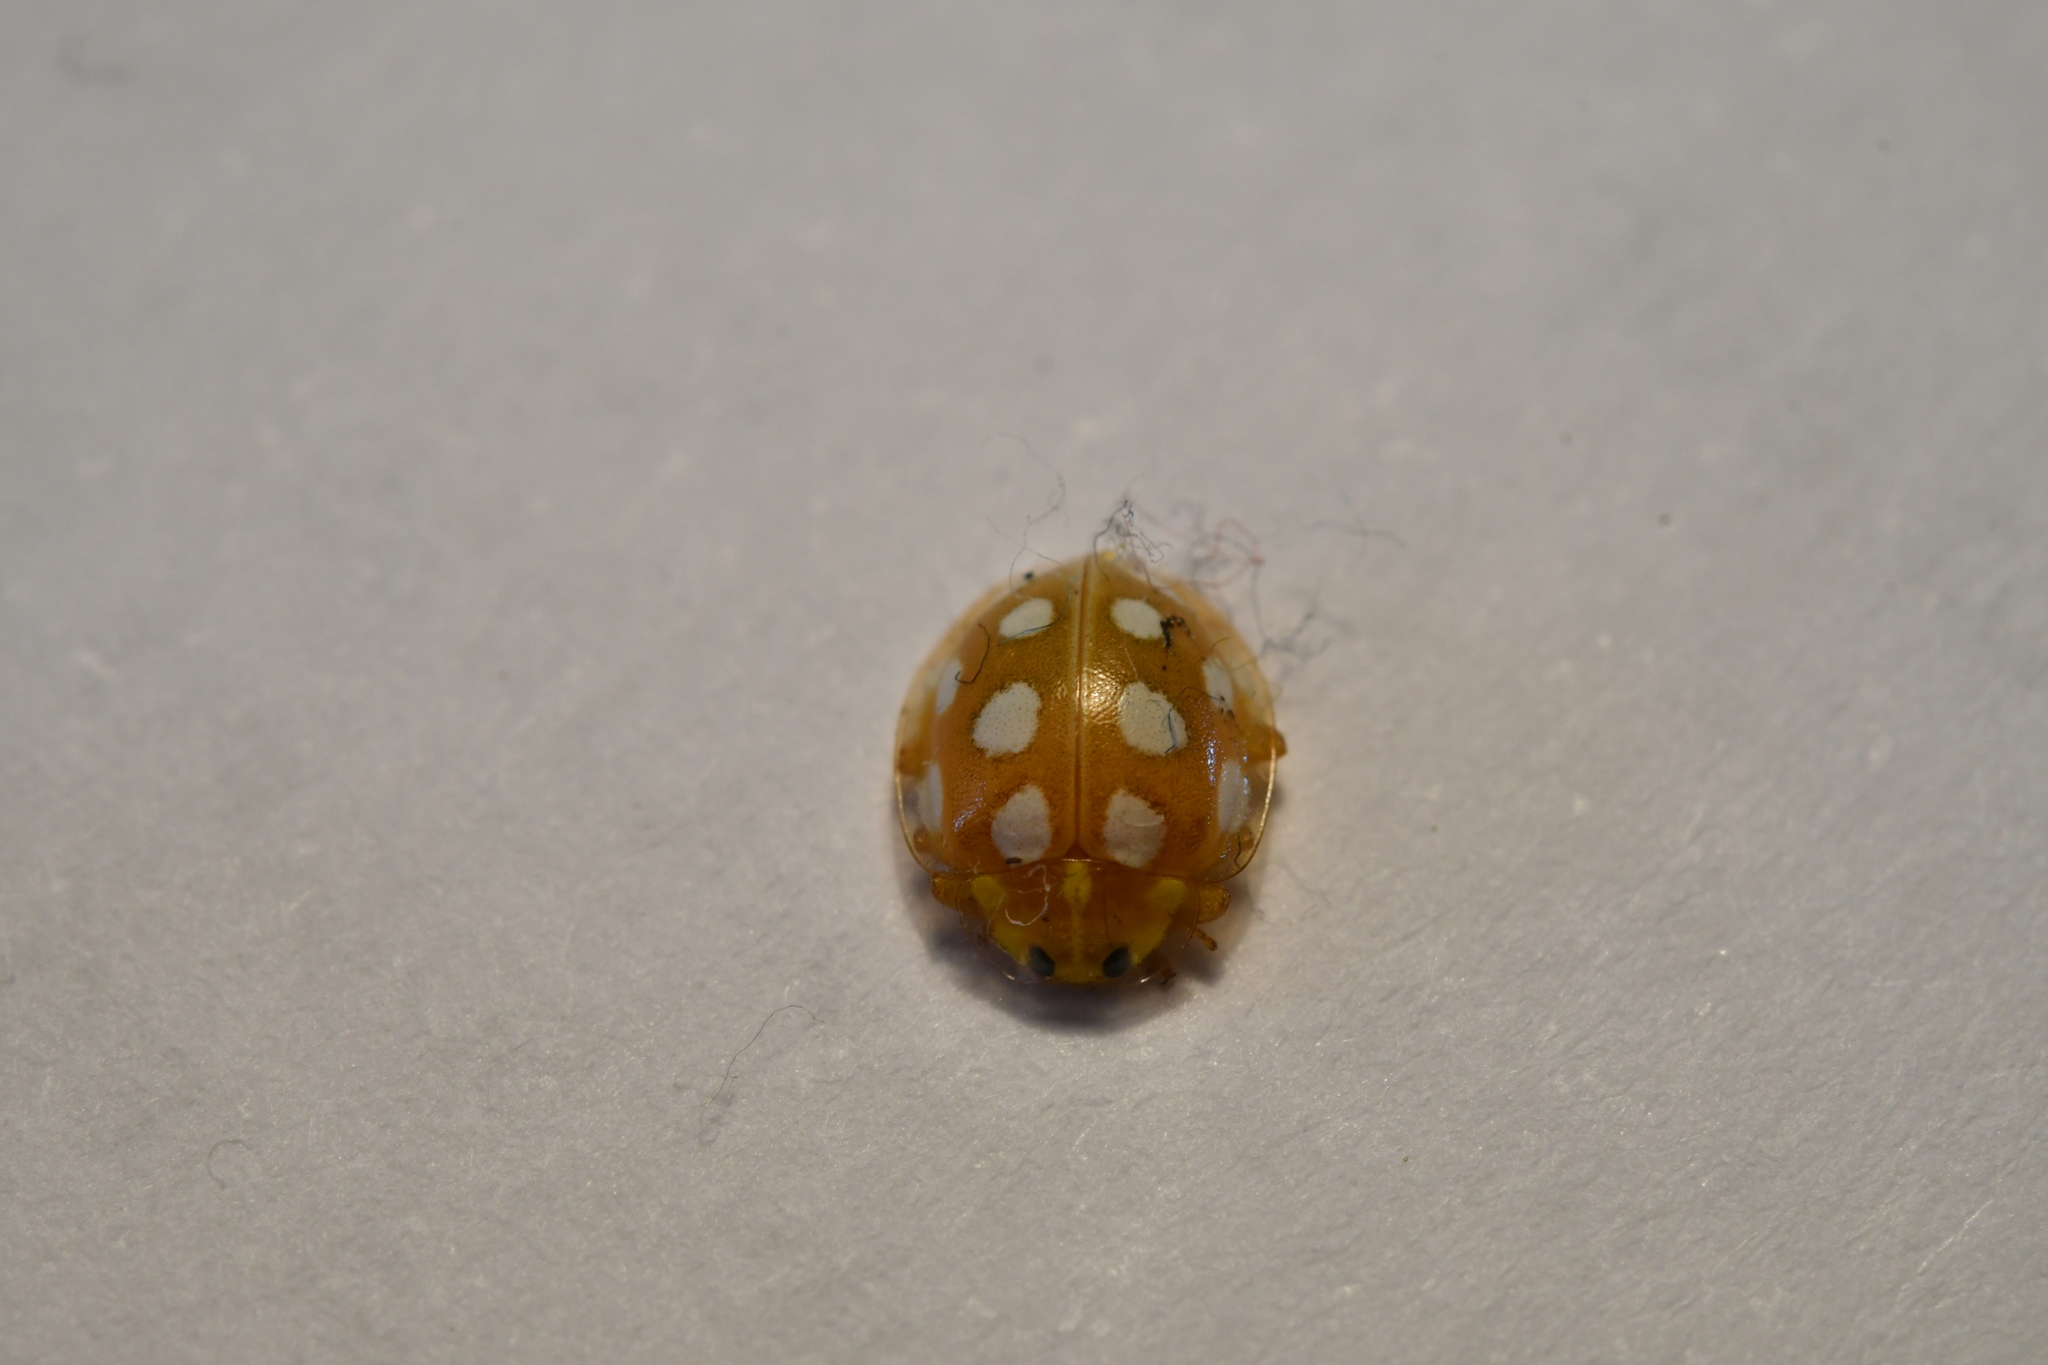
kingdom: Animalia
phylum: Arthropoda
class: Insecta
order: Coleoptera
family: Coccinellidae
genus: Halyzia
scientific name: Halyzia sedecimguttata
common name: Orange ladybird
